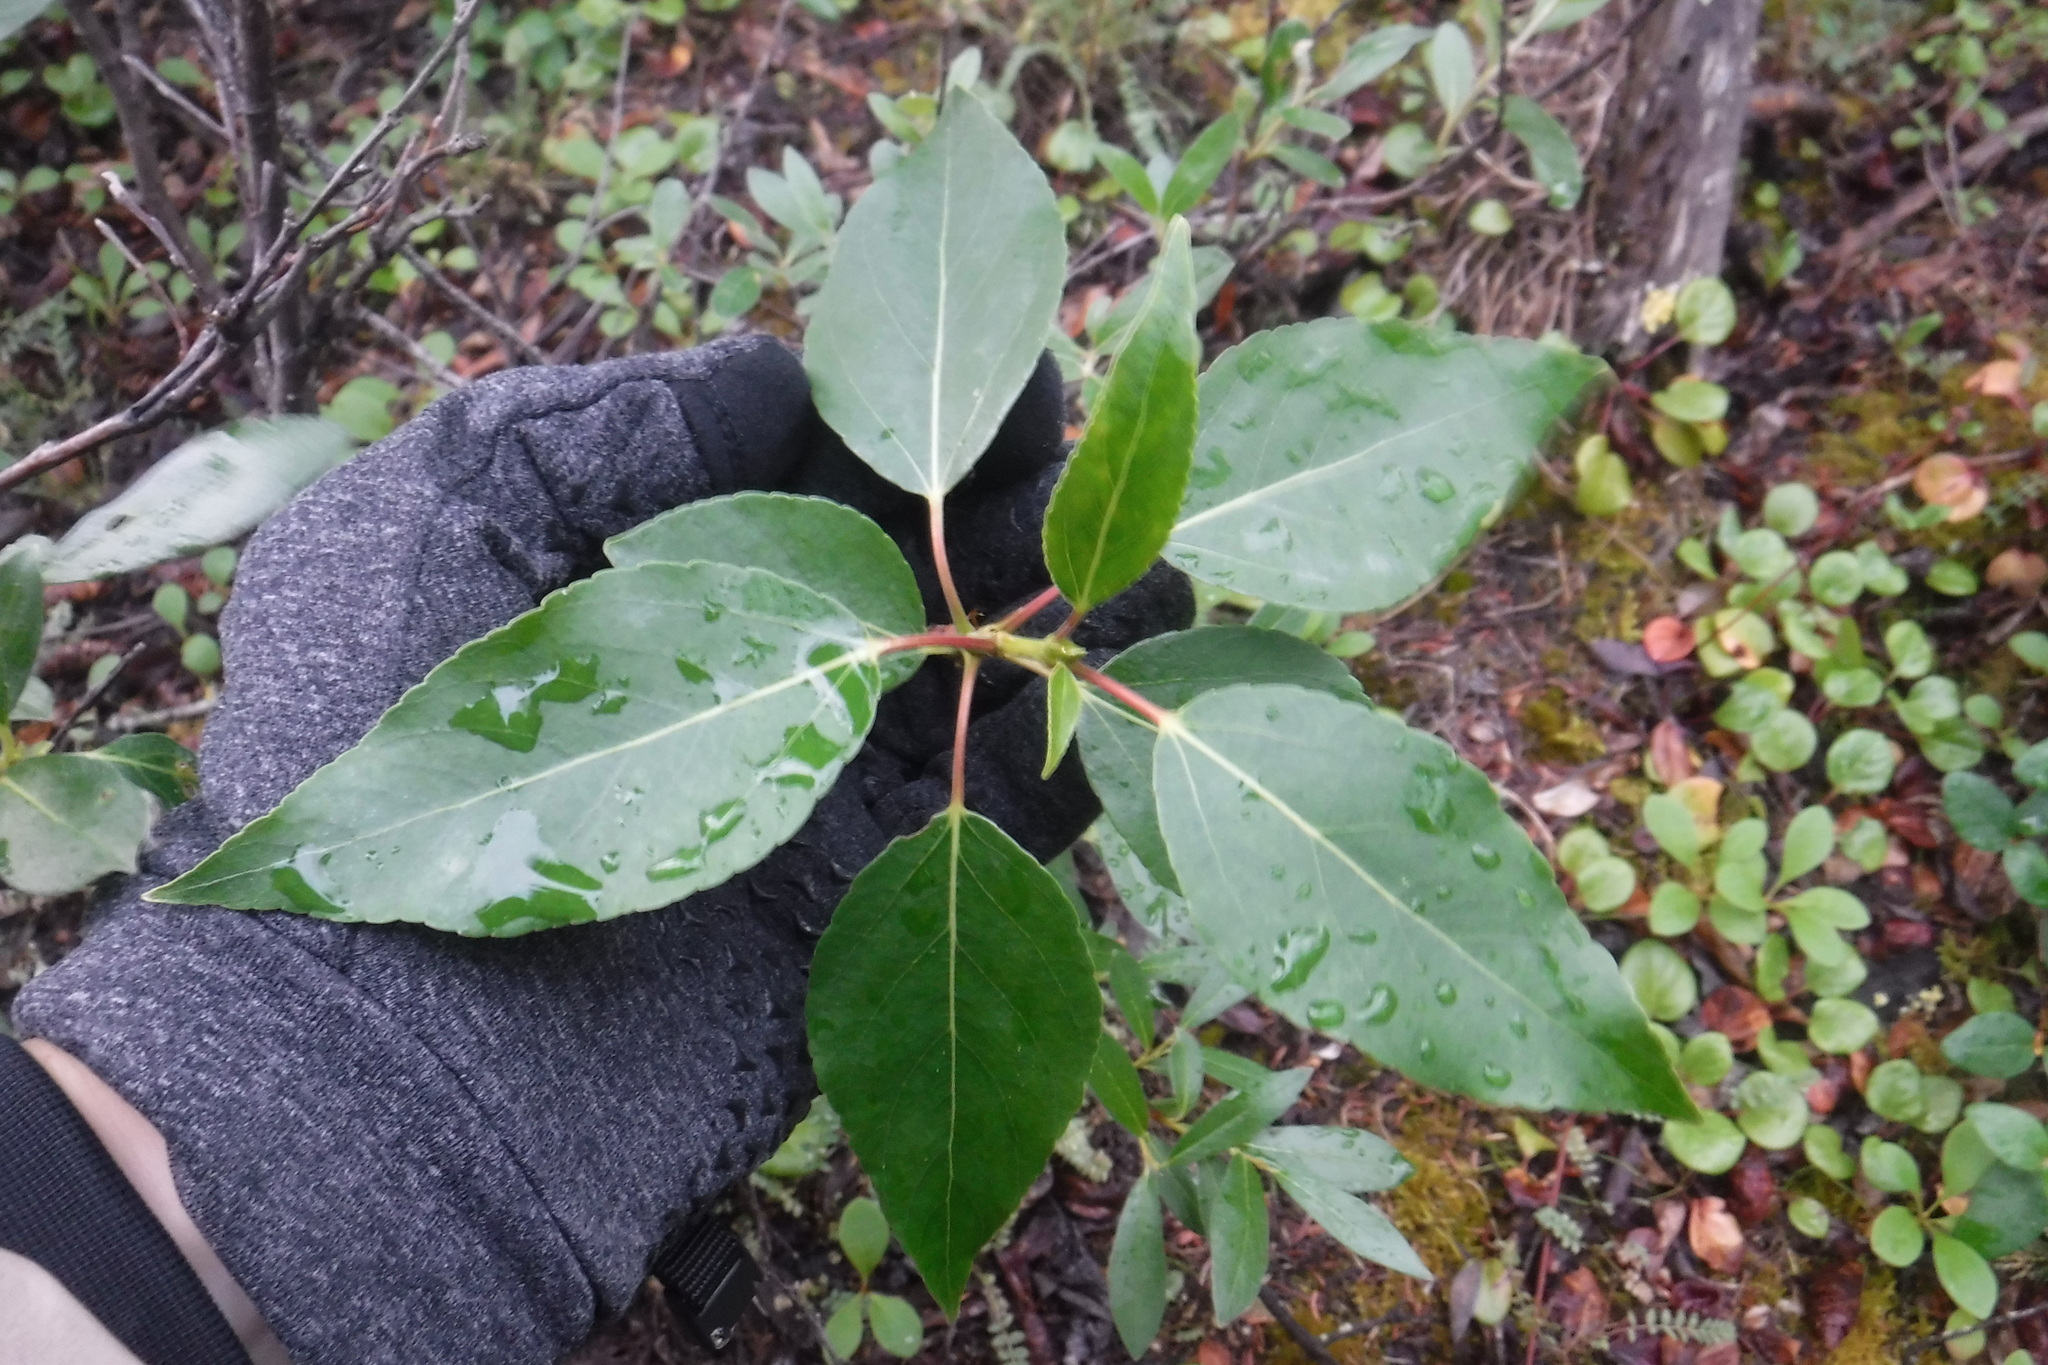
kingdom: Plantae
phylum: Tracheophyta
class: Magnoliopsida
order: Malpighiales
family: Salicaceae
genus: Populus
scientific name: Populus balsamifera
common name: Balsam poplar
